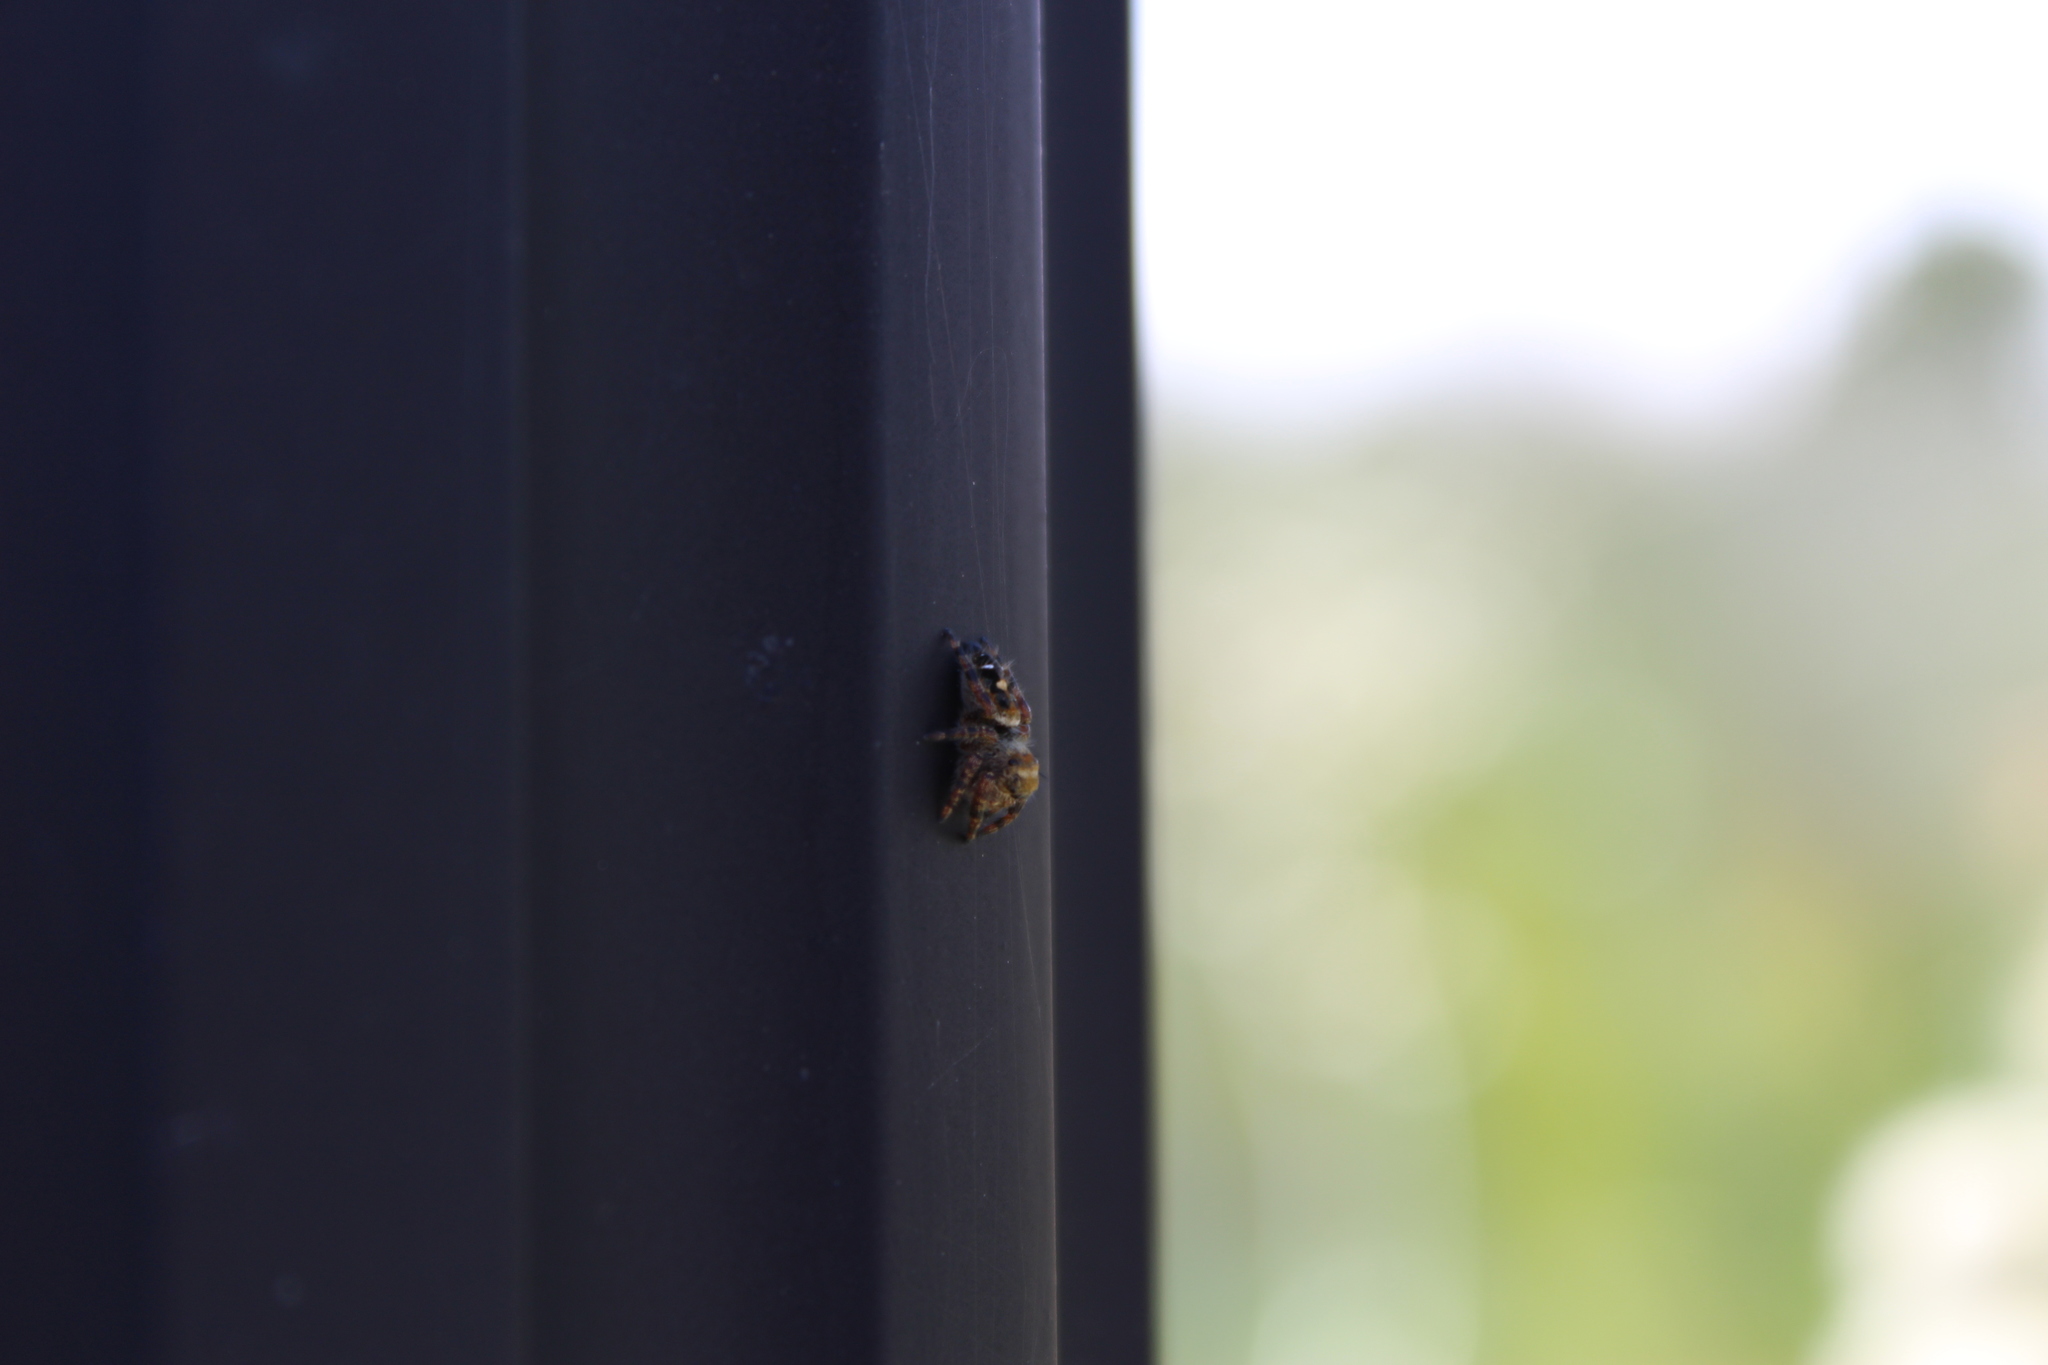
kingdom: Animalia
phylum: Arthropoda
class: Arachnida
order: Araneae
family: Salticidae
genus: Phidippus
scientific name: Phidippus audax
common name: Bold jumper
